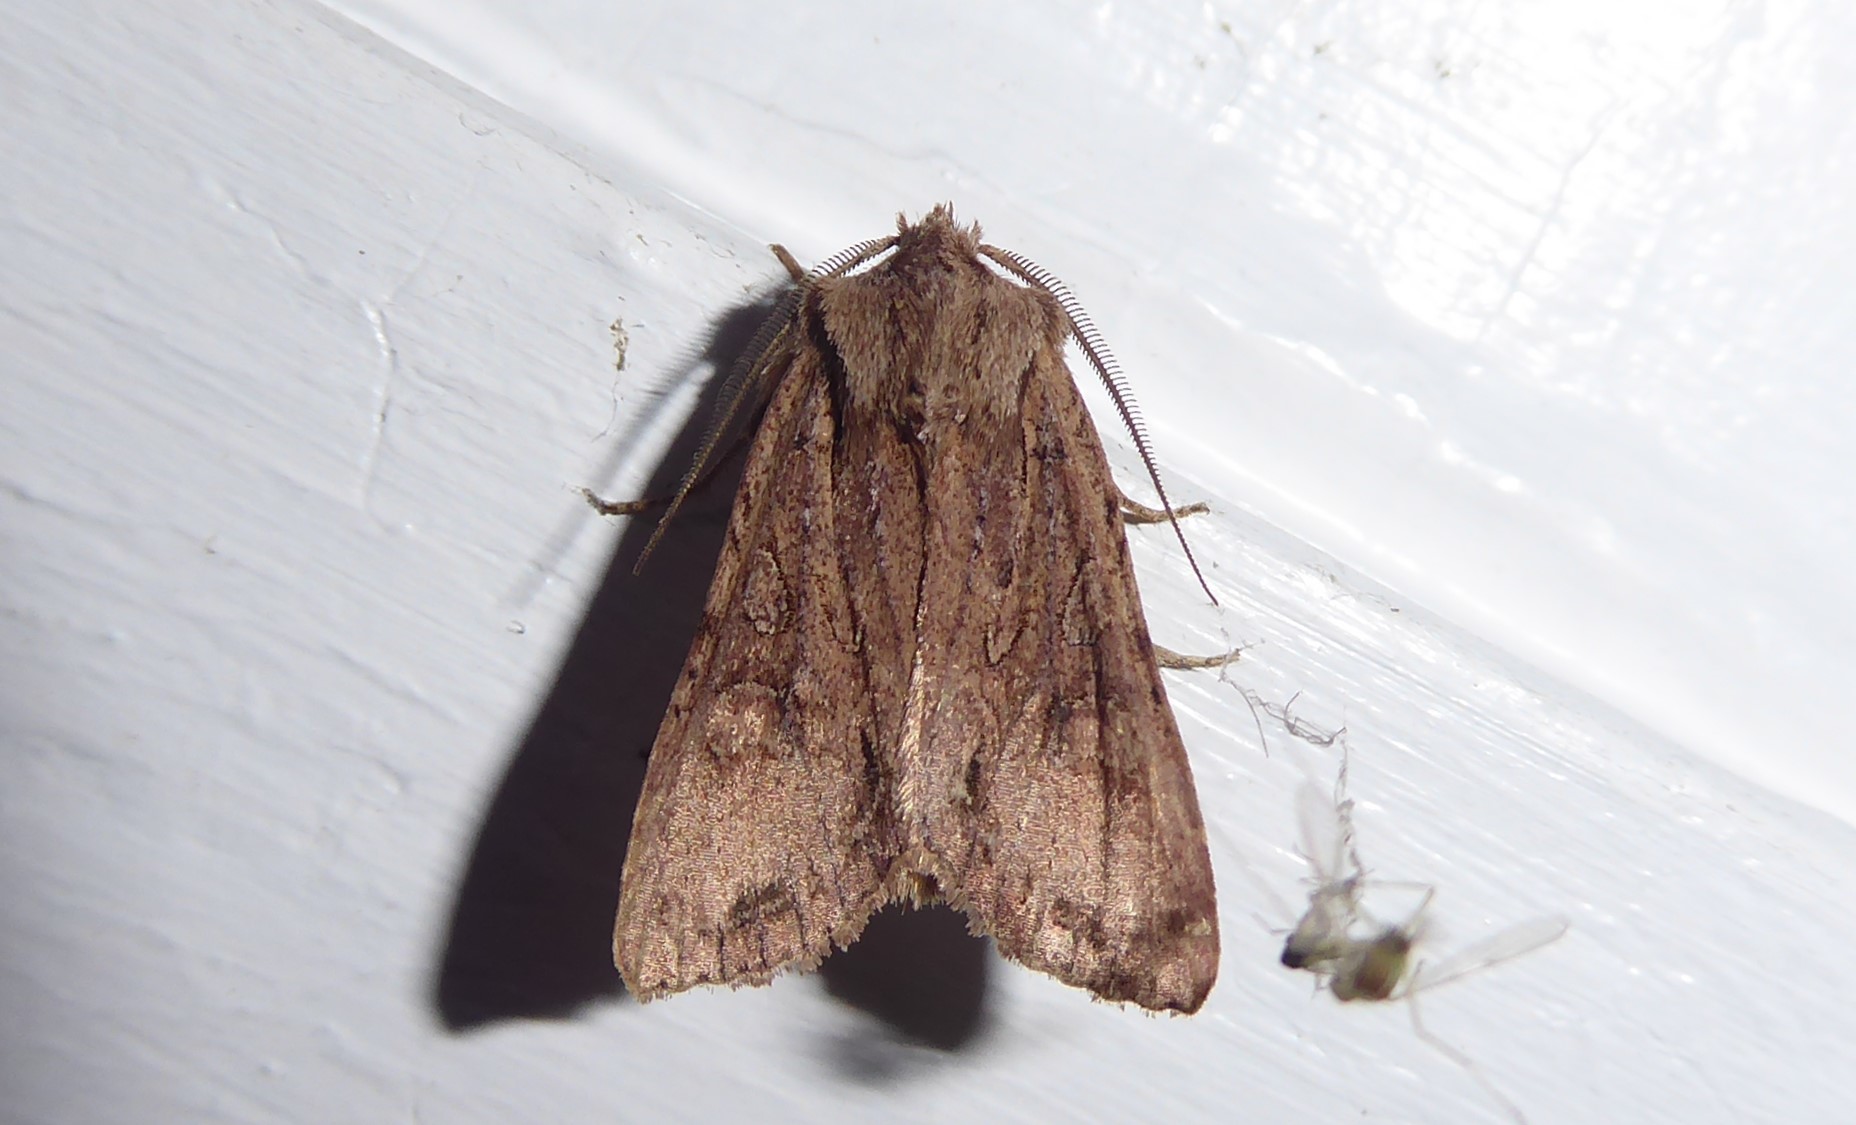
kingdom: Animalia
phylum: Arthropoda
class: Insecta
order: Lepidoptera
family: Noctuidae
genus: Ichneutica
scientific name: Ichneutica
